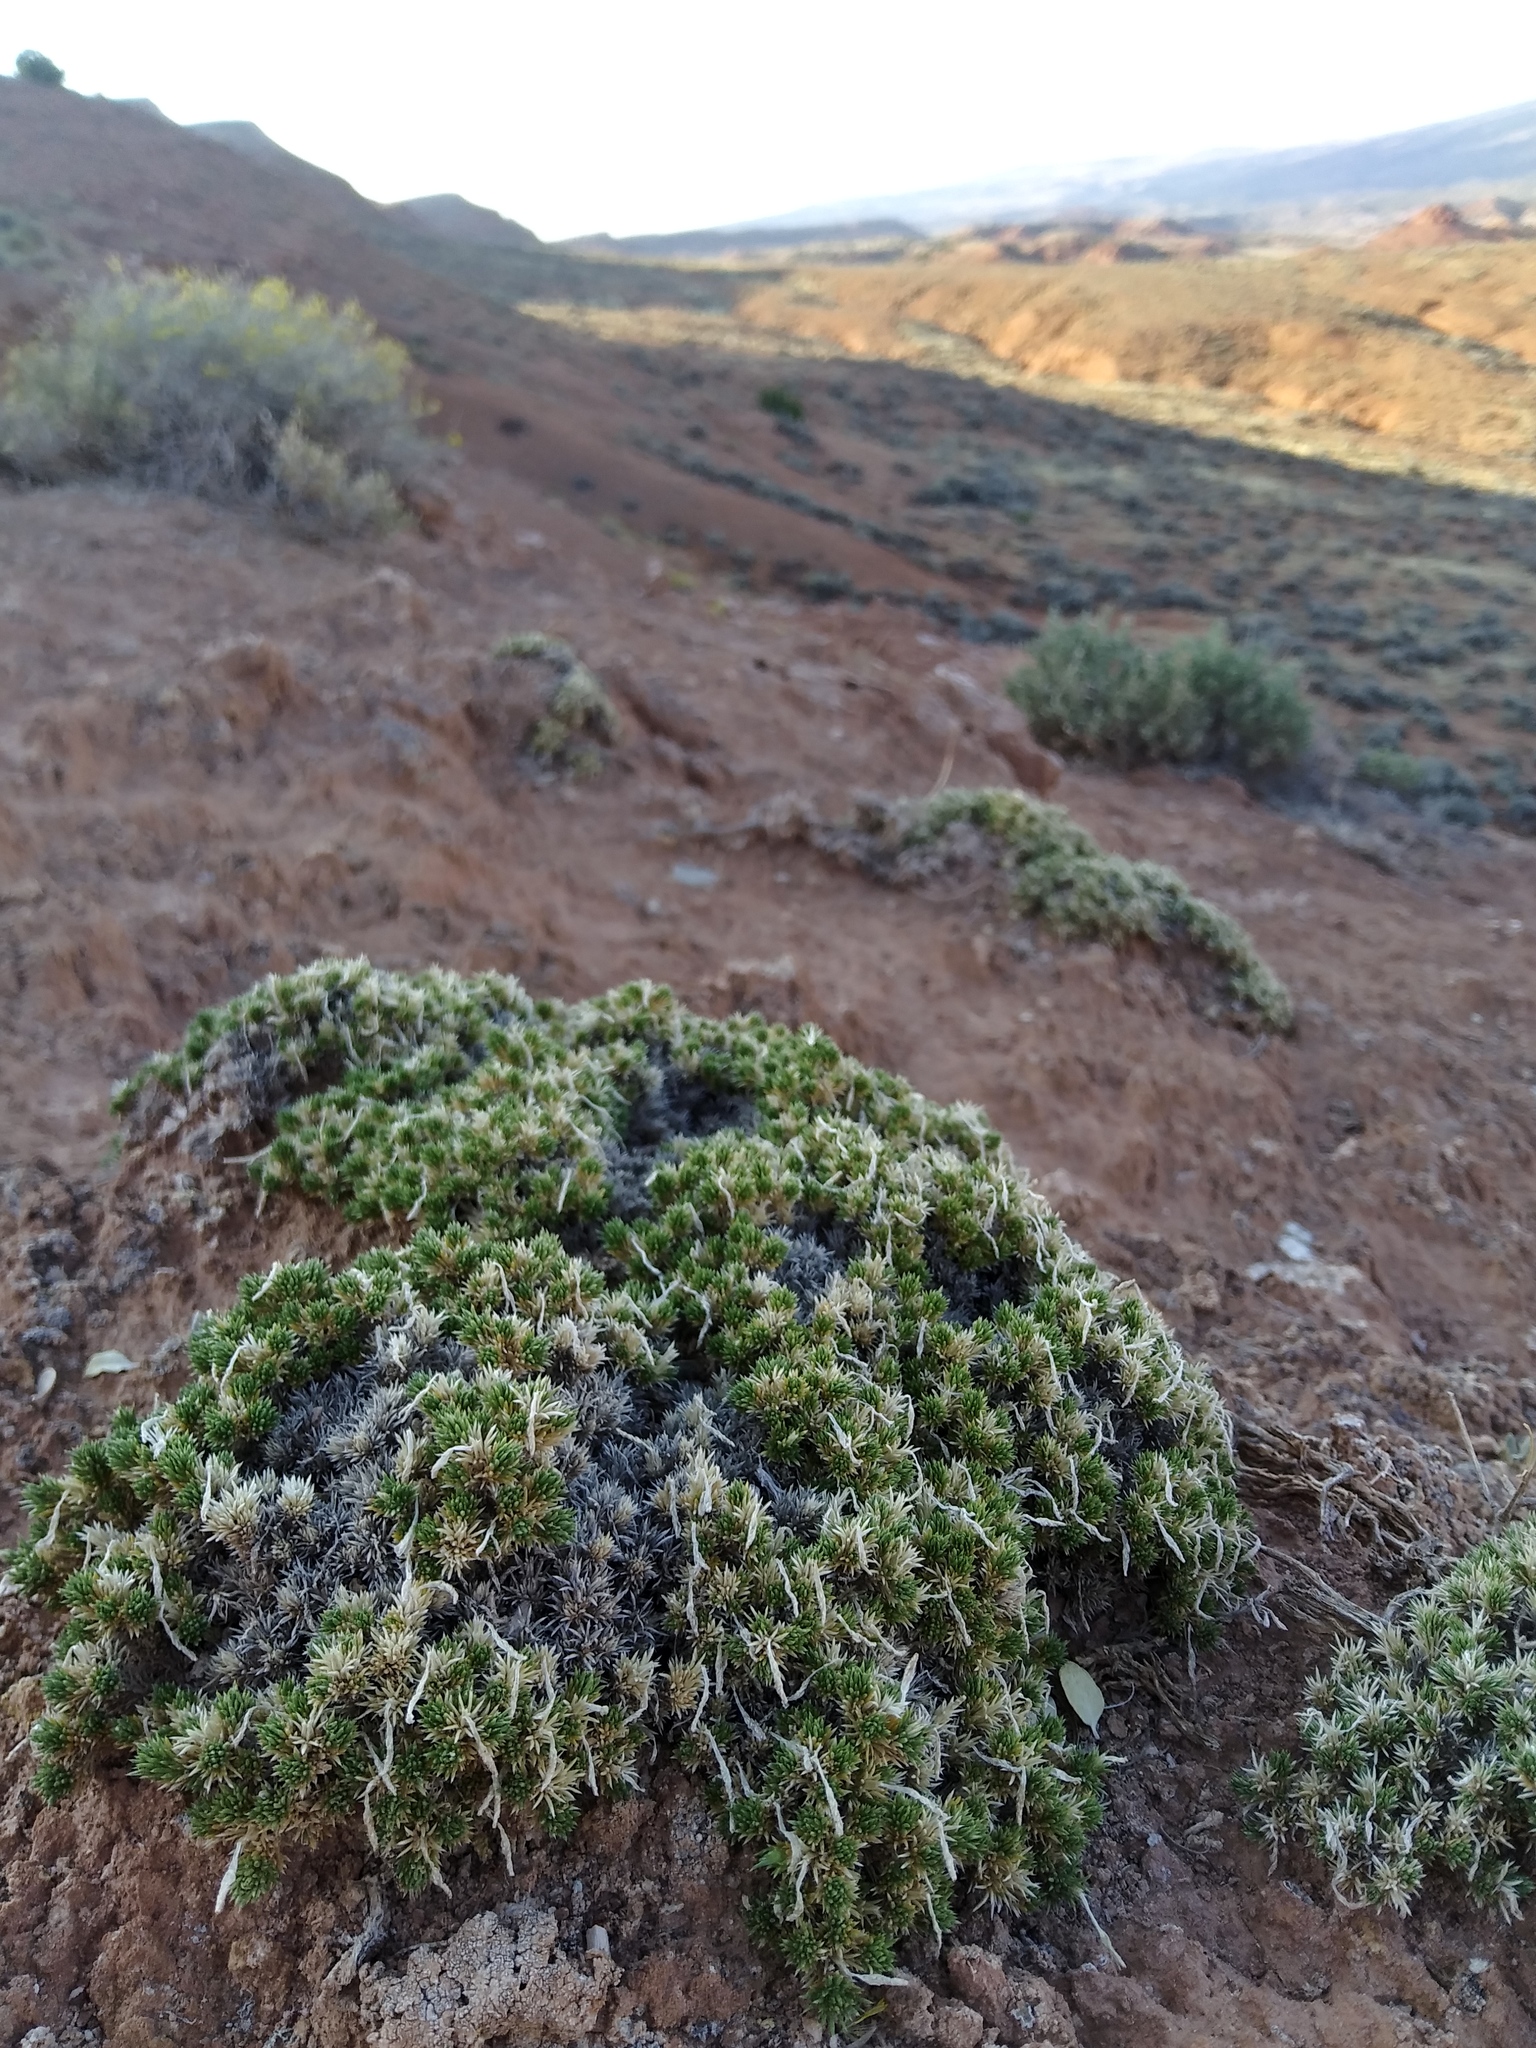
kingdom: Plantae
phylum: Tracheophyta
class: Magnoliopsida
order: Ericales
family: Polemoniaceae
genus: Linanthus
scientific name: Linanthus caespitosus
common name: Mat prickly phlox
